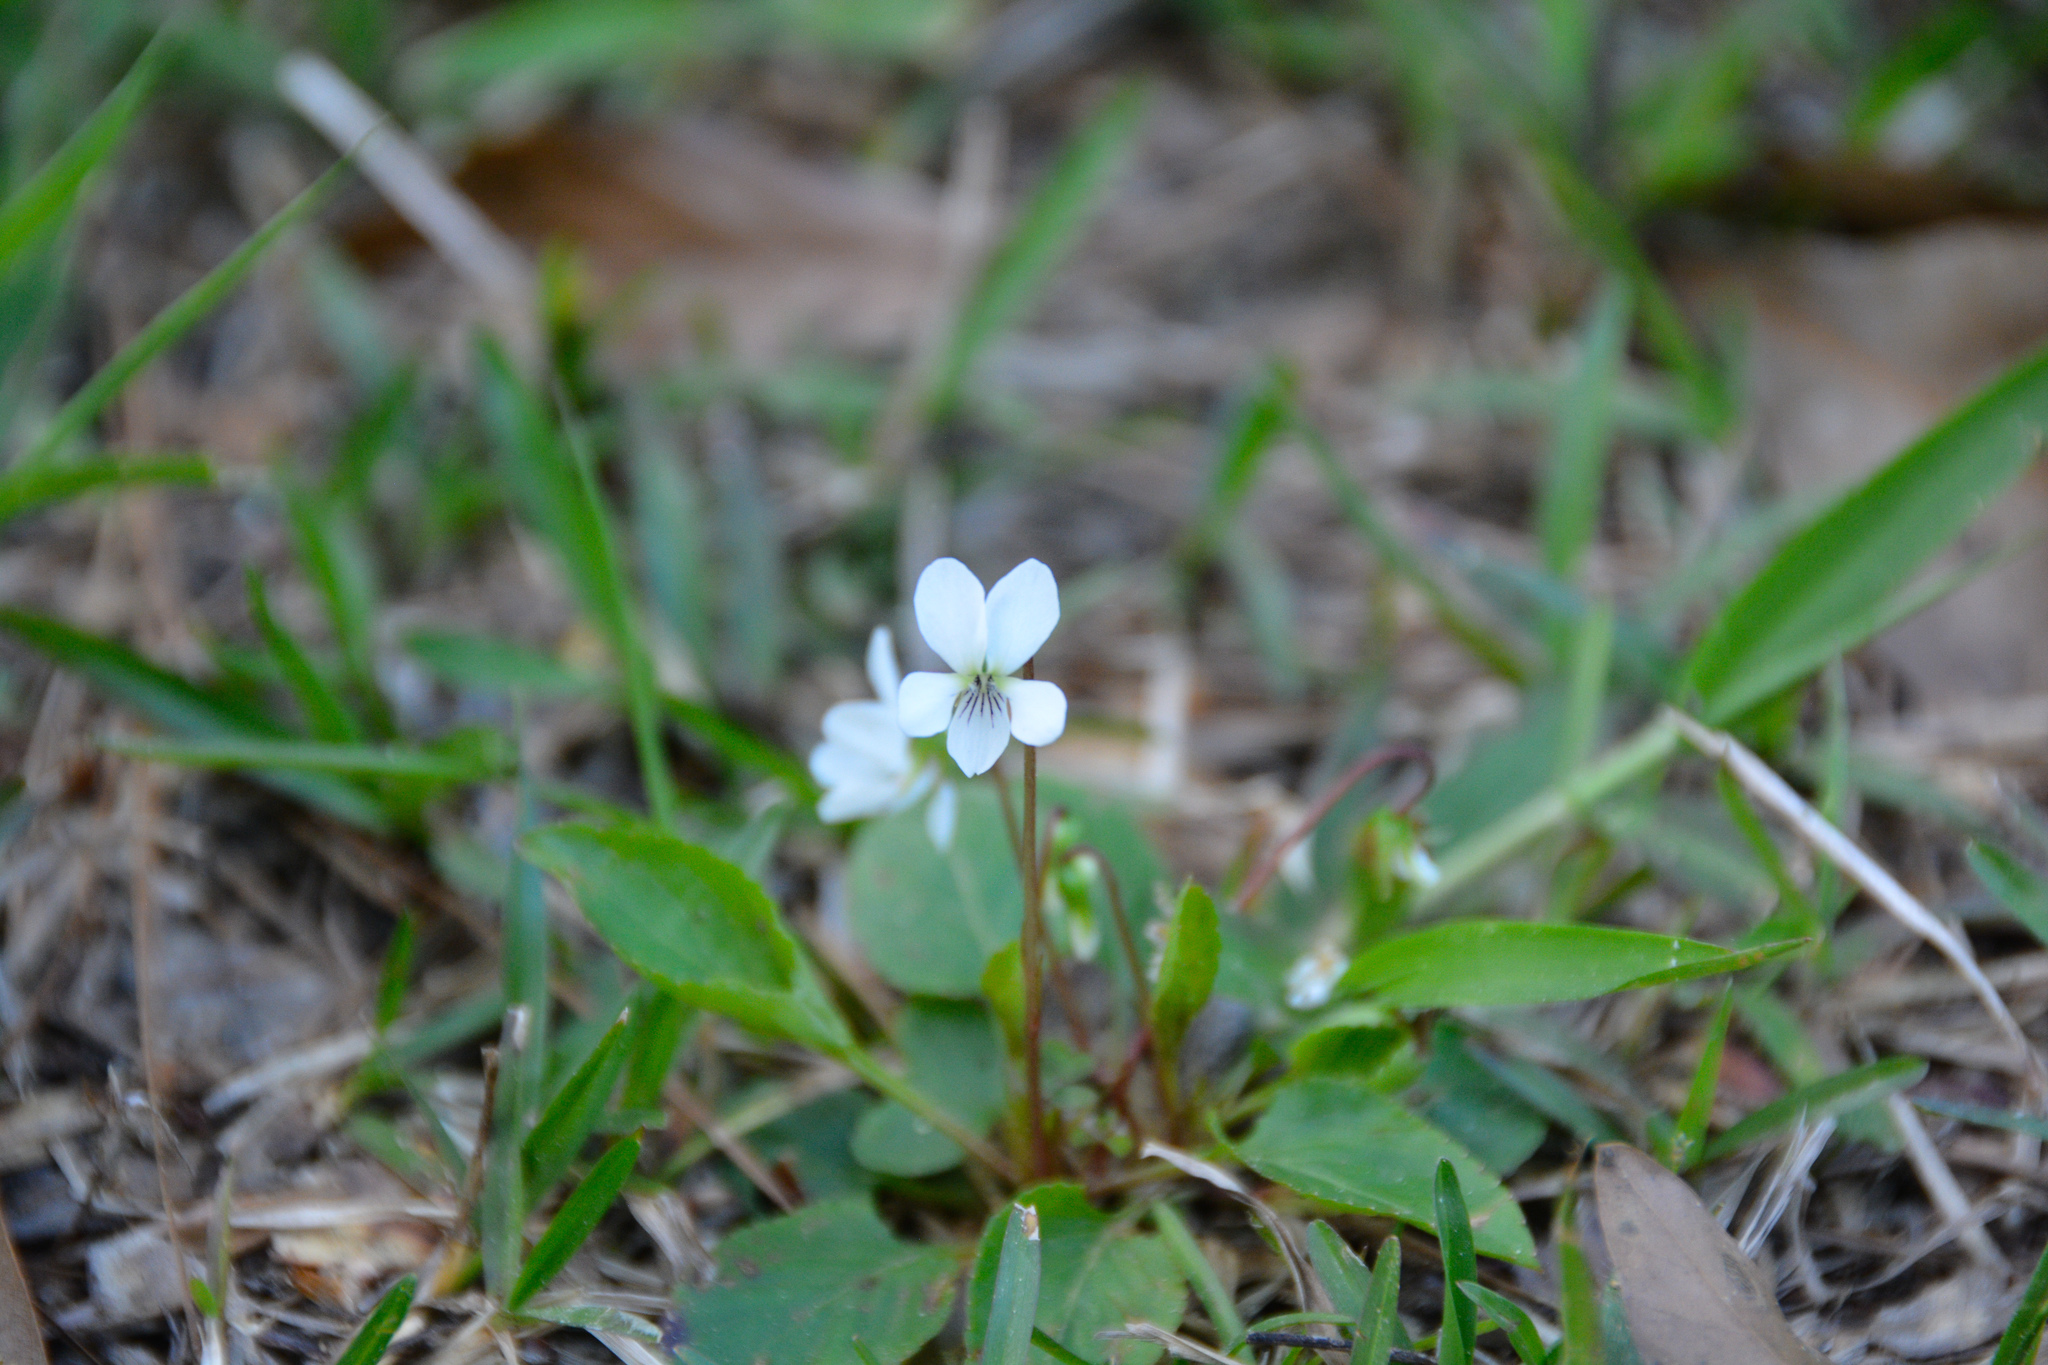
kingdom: Plantae
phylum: Tracheophyta
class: Magnoliopsida
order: Malpighiales
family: Violaceae
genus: Viola
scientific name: Viola primulifolia
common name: Primrose-leaf violet
